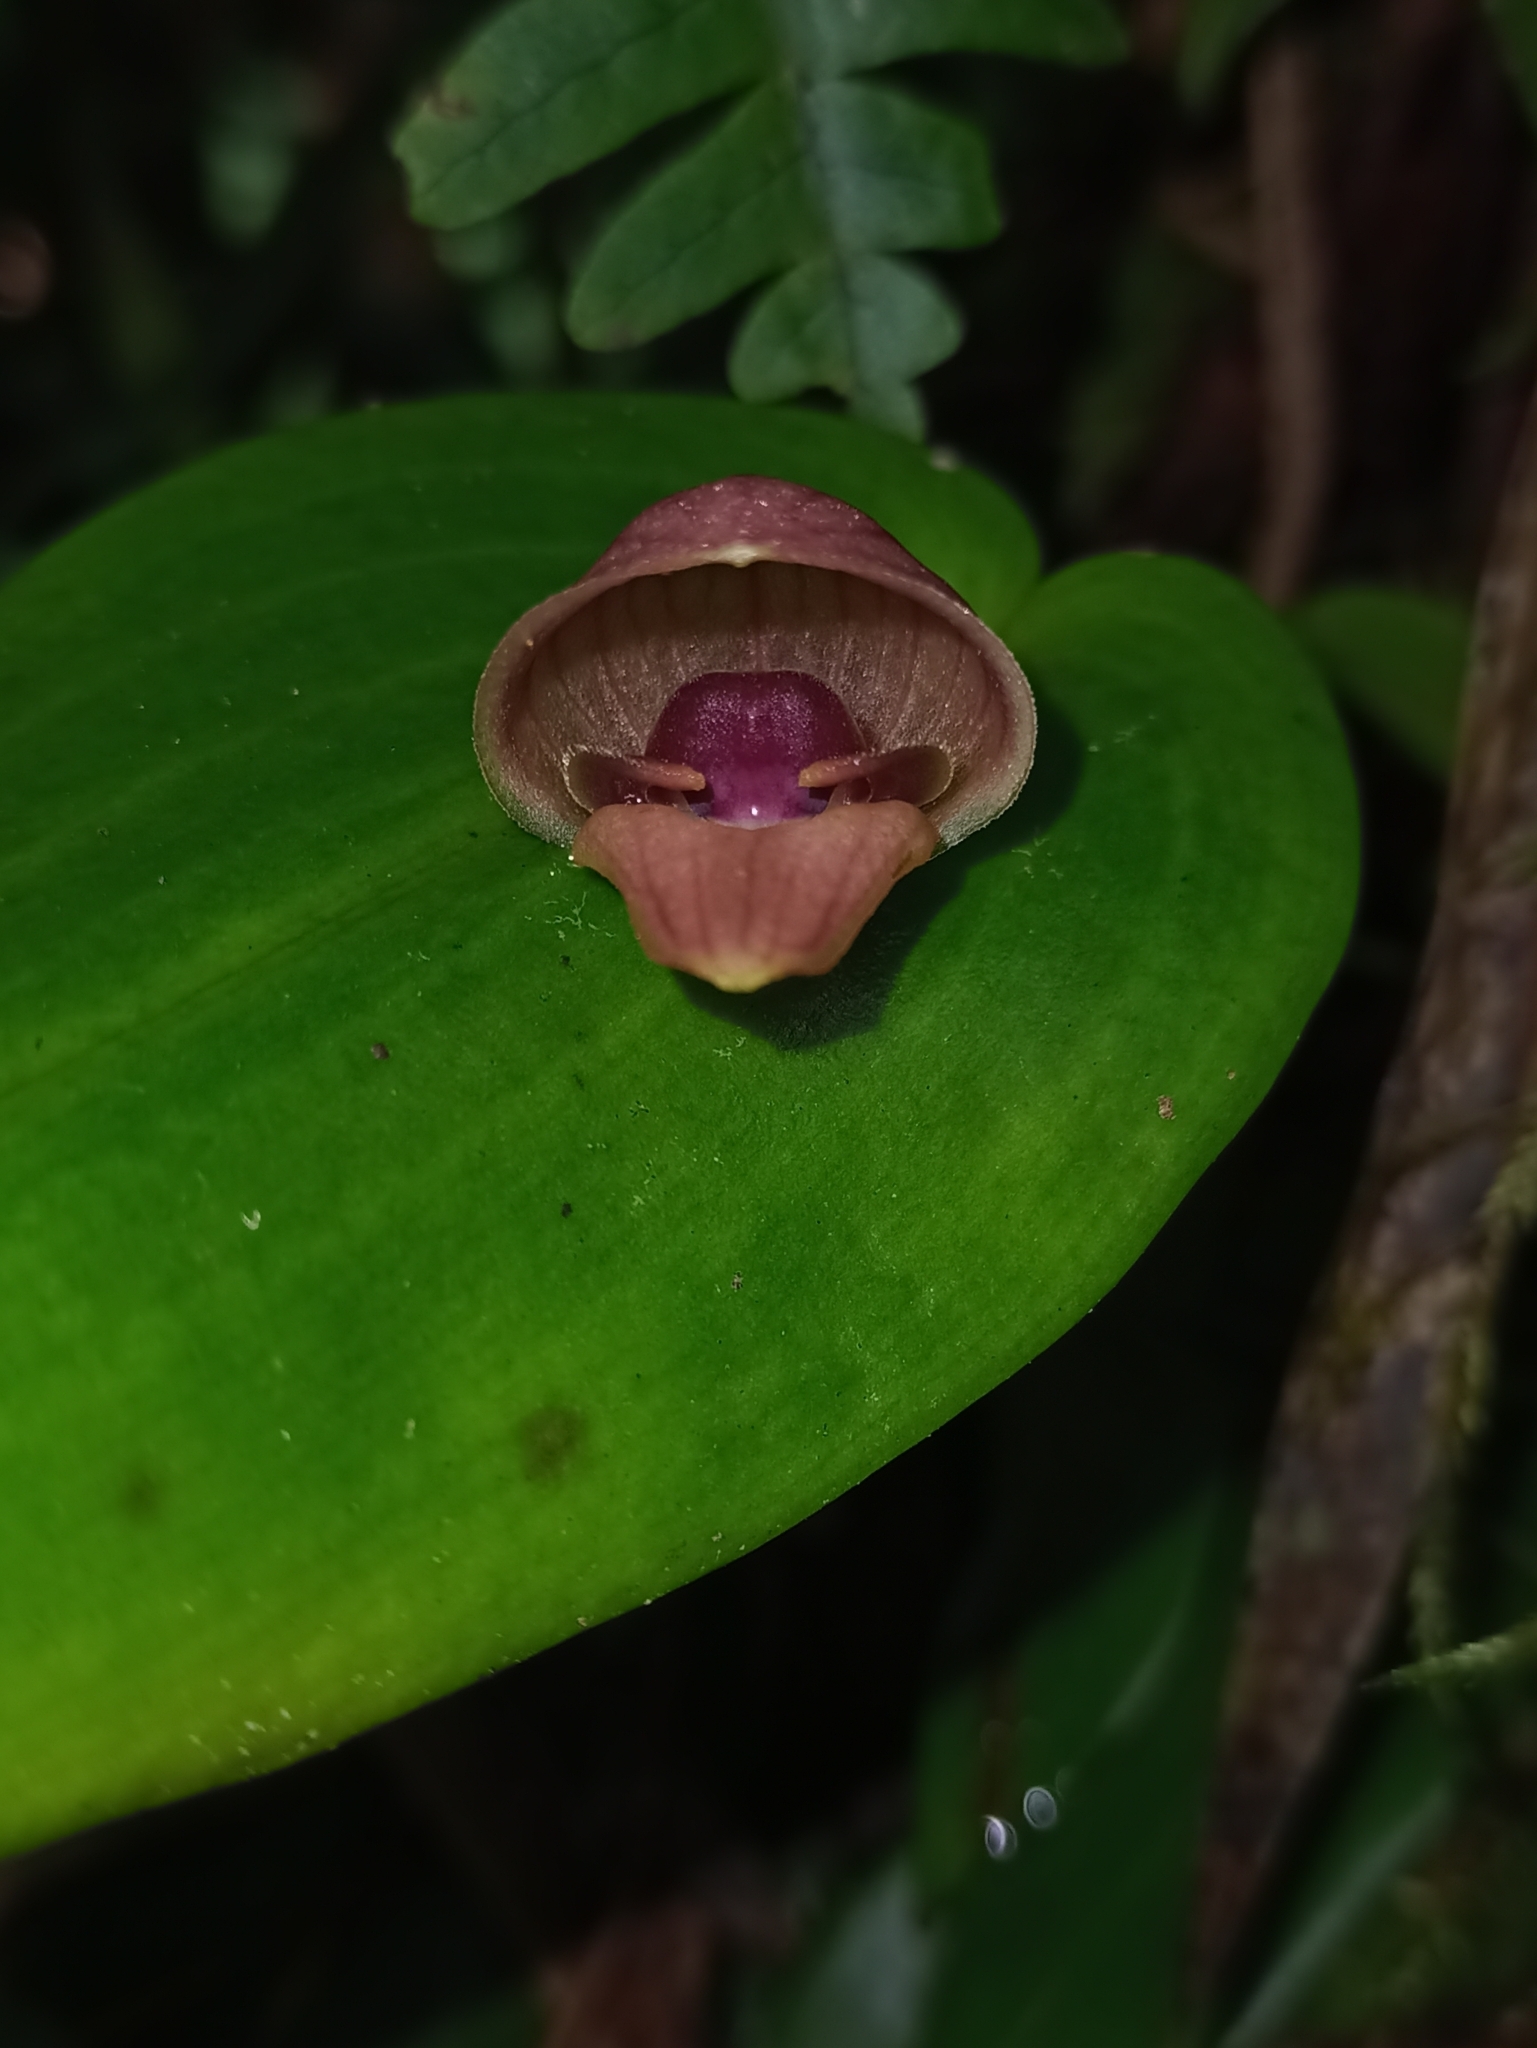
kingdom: Plantae
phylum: Tracheophyta
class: Liliopsida
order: Asparagales
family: Orchidaceae
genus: Pleurothallis
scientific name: Pleurothallis palliolata
